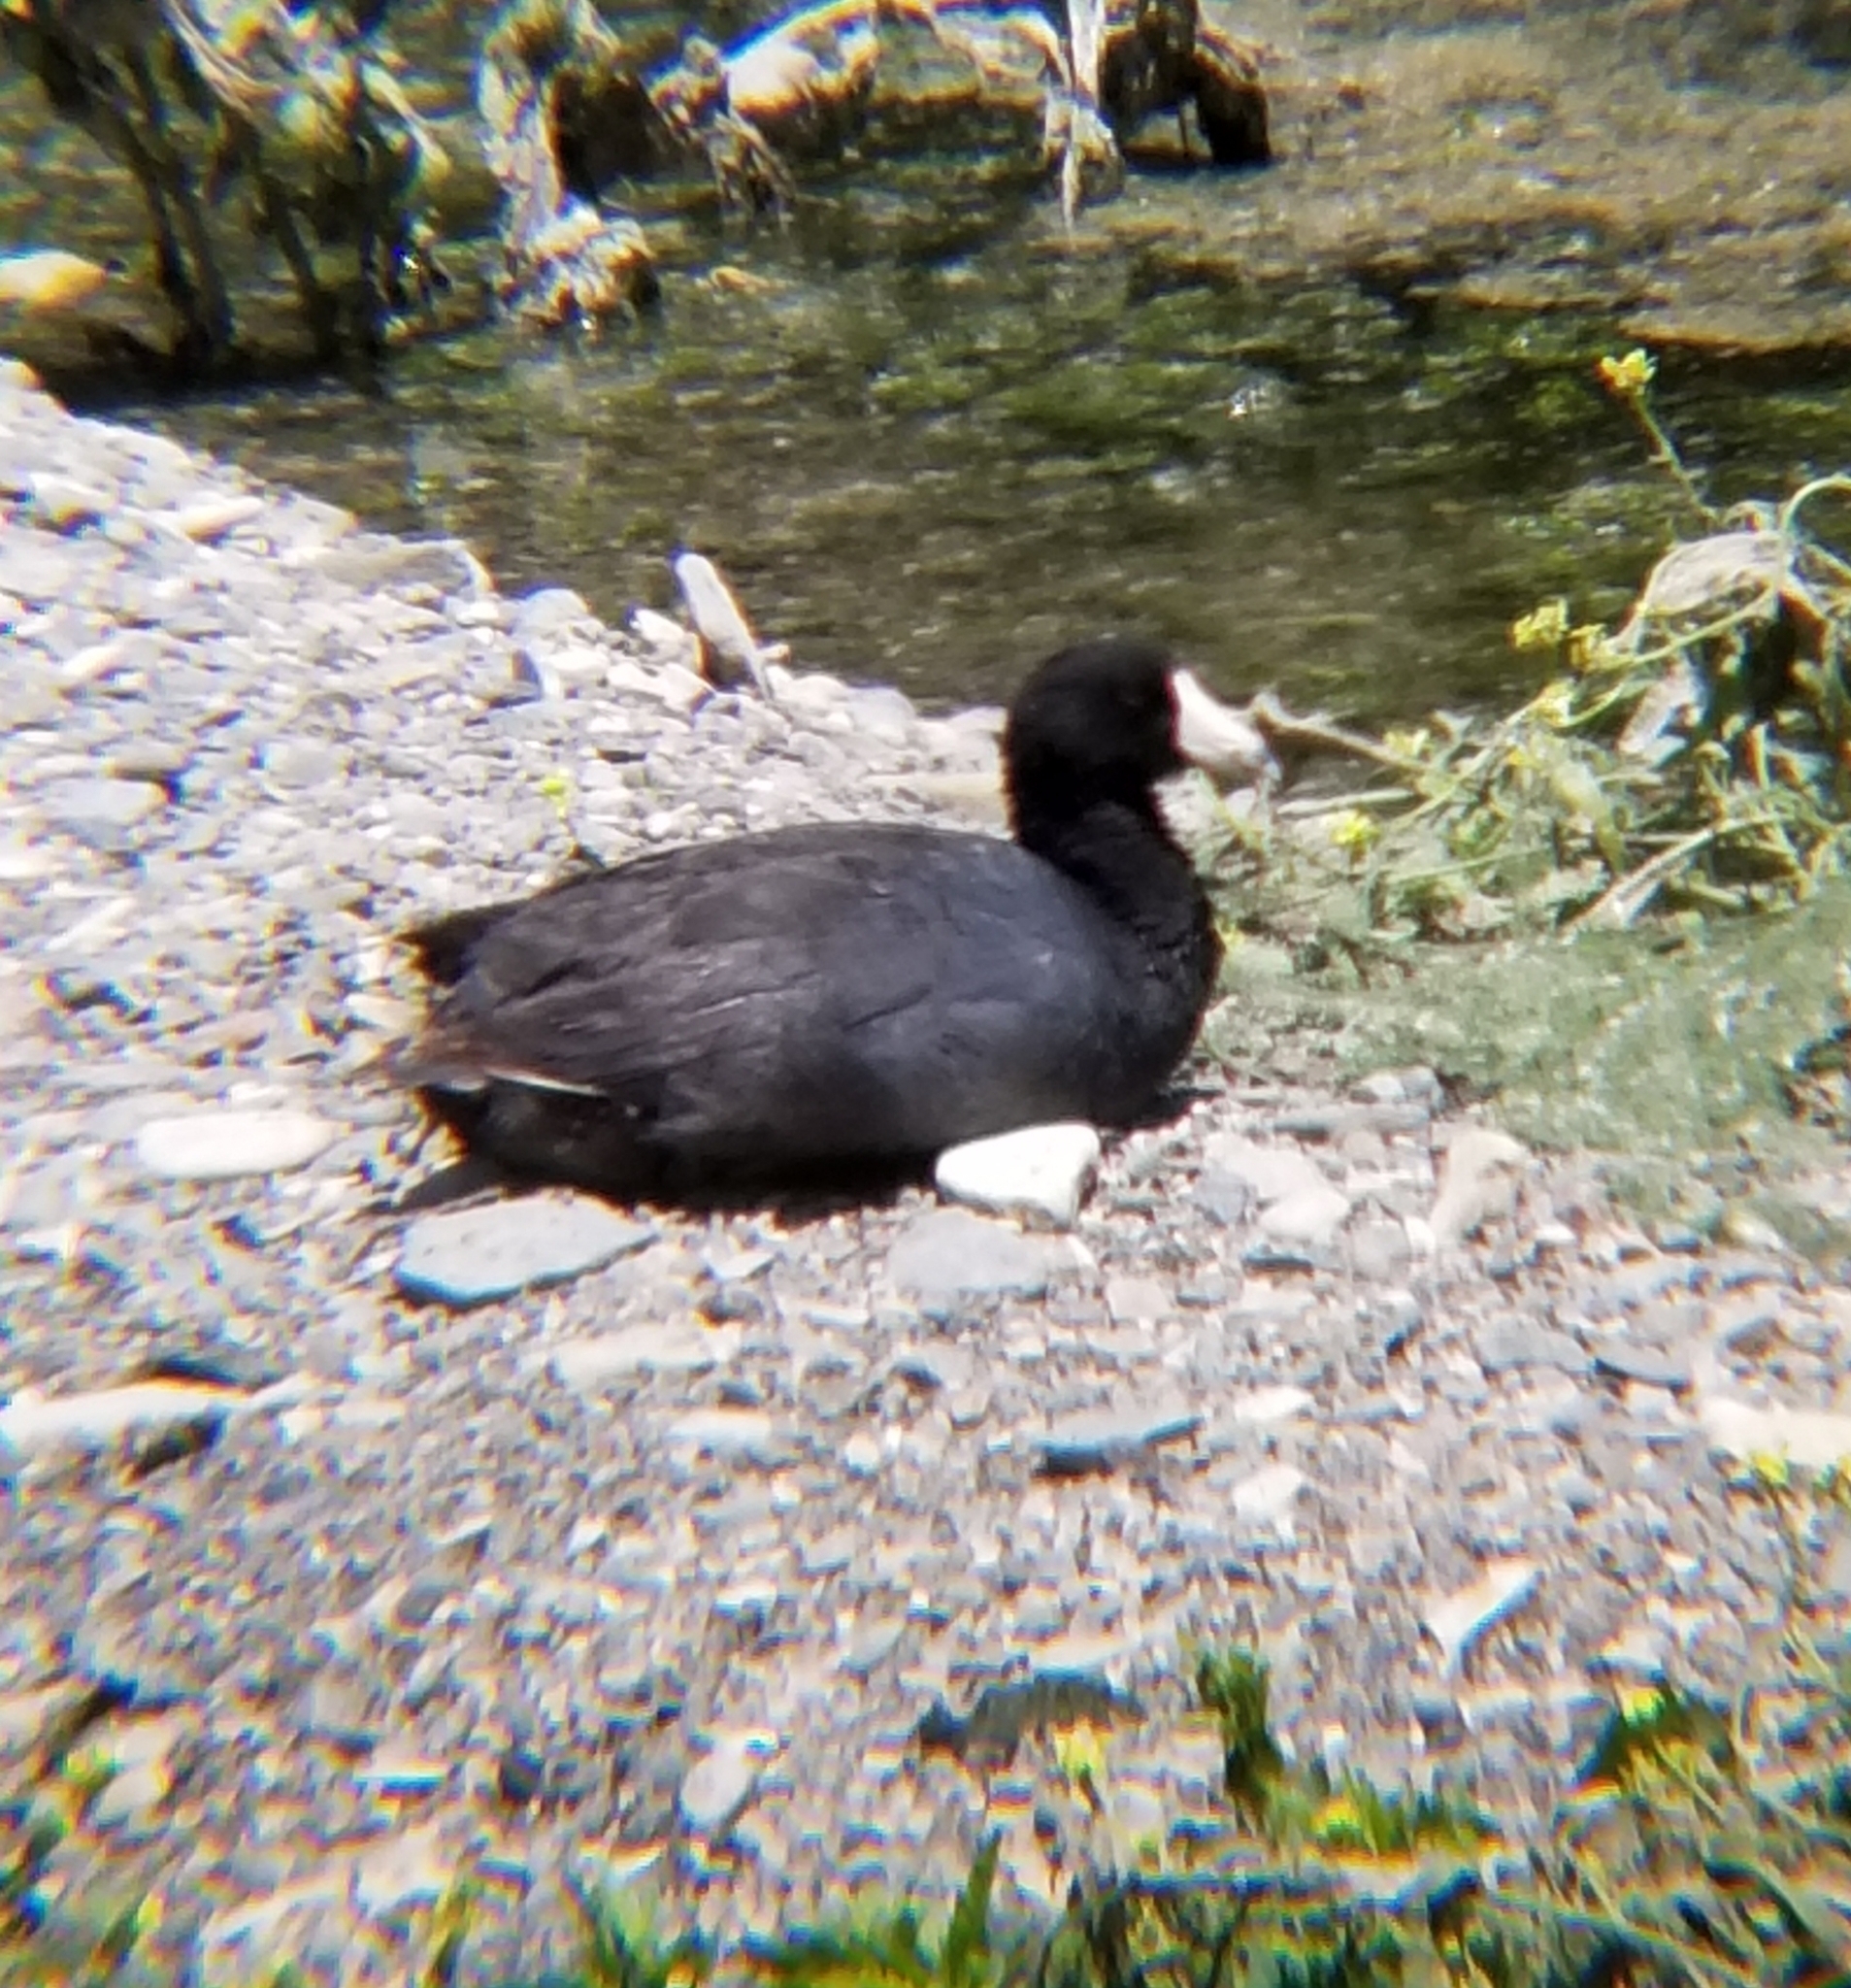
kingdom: Animalia
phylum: Chordata
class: Aves
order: Gruiformes
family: Rallidae
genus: Fulica
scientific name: Fulica americana
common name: American coot
